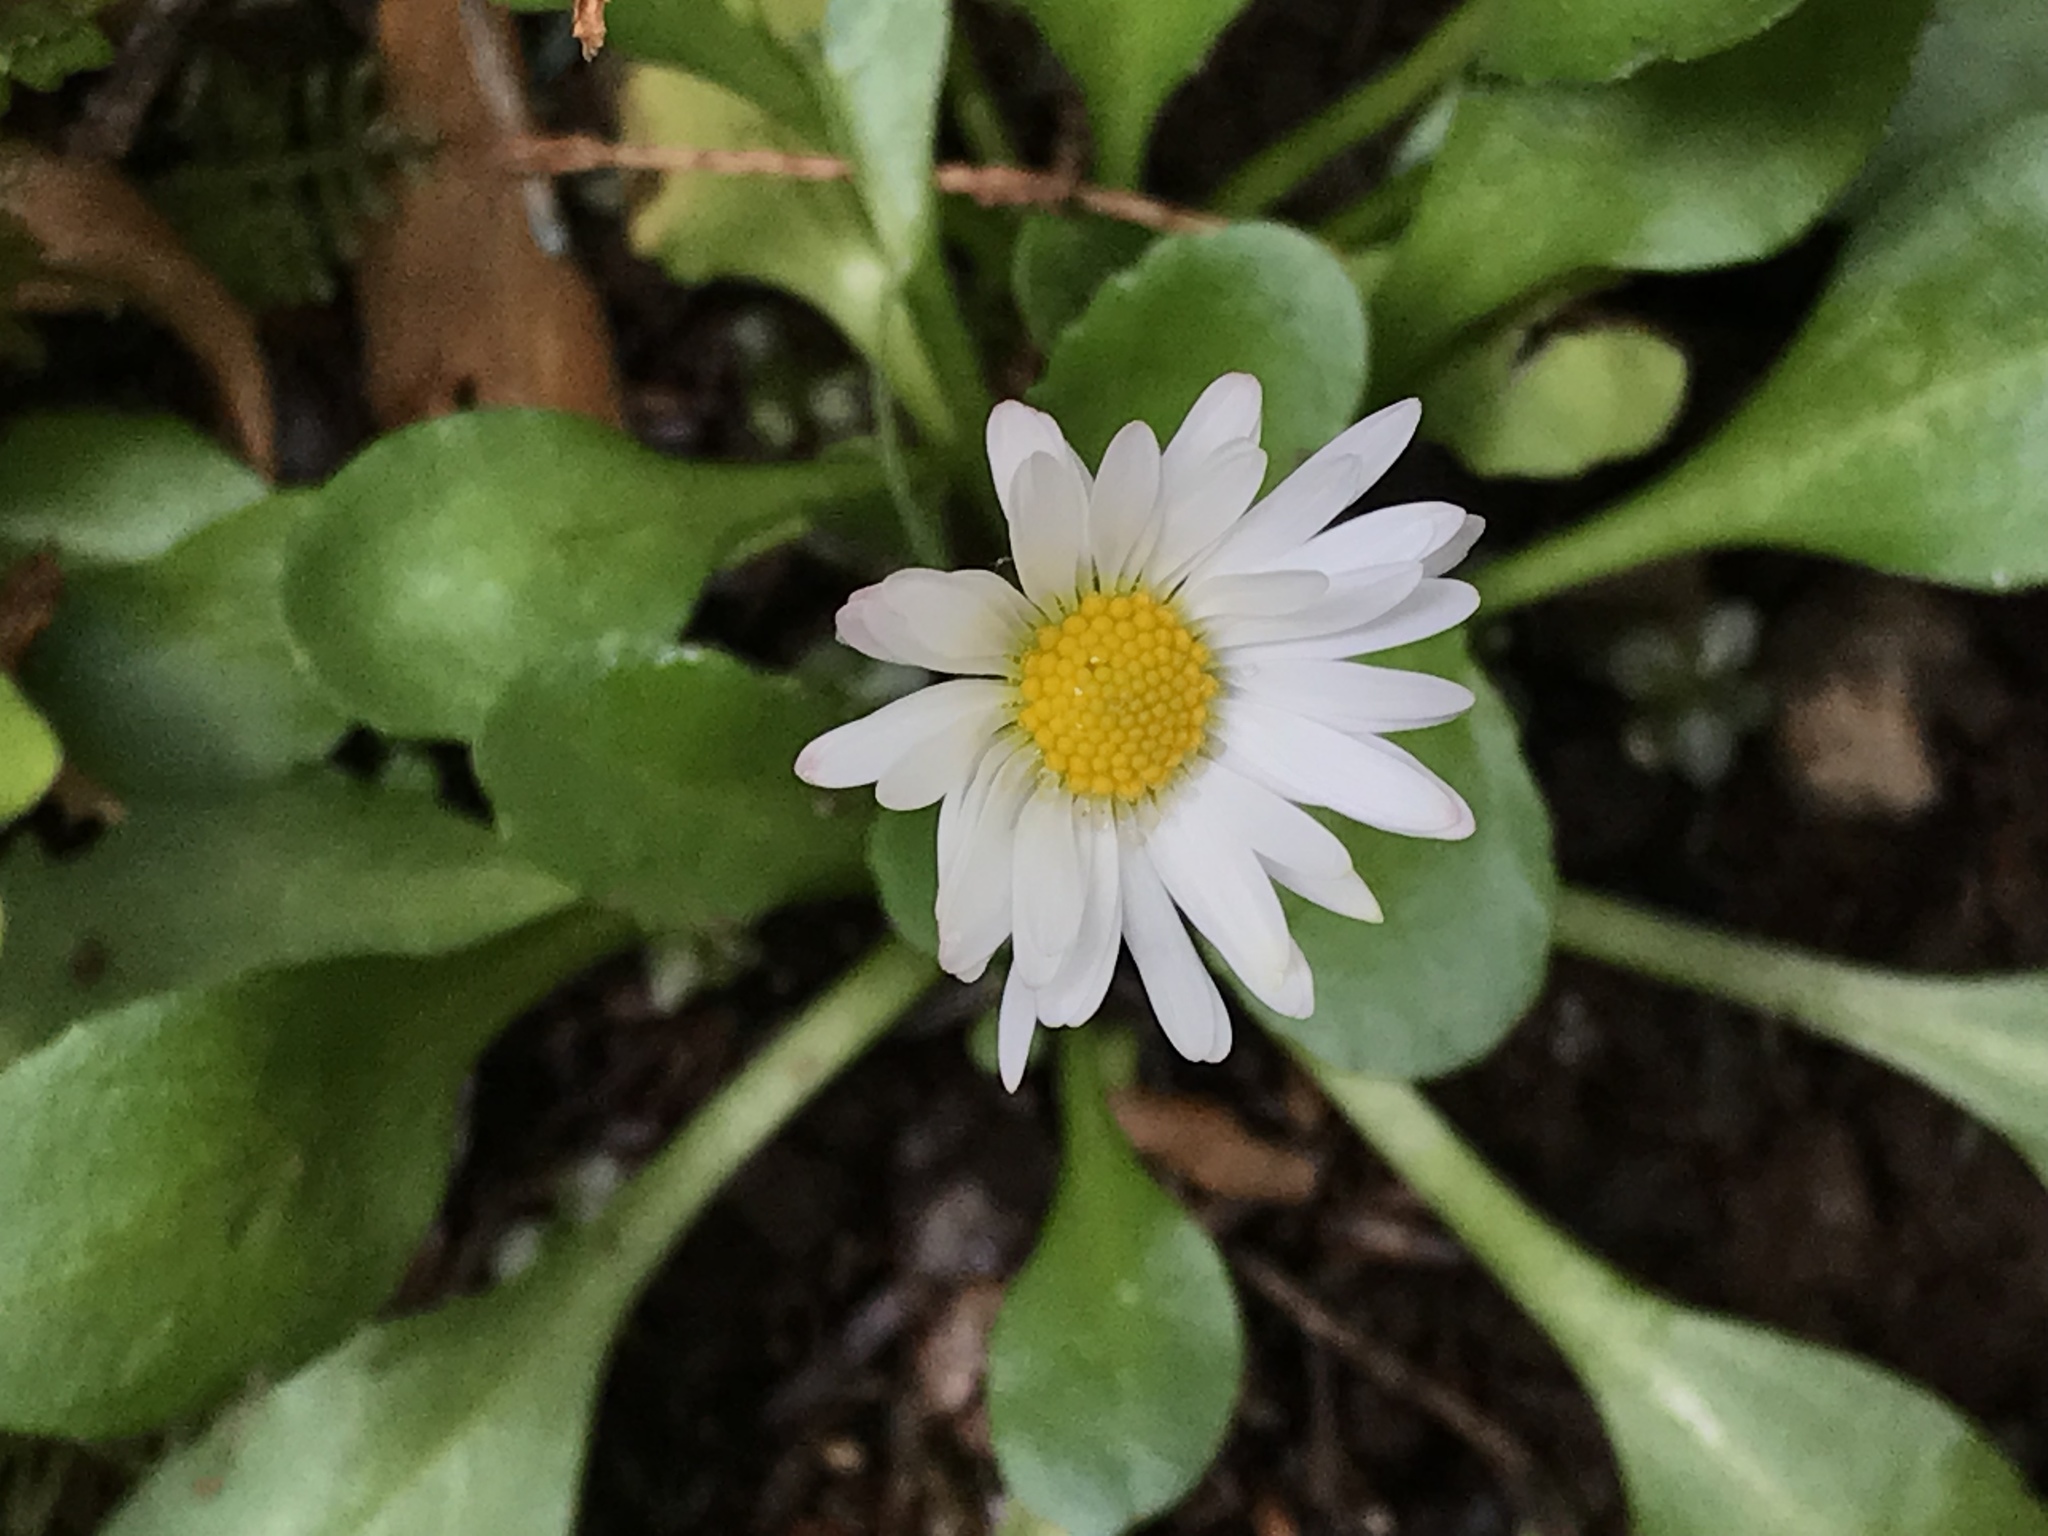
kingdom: Plantae
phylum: Tracheophyta
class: Magnoliopsida
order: Asterales
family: Asteraceae
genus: Bellis
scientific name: Bellis perennis
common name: Lawndaisy
